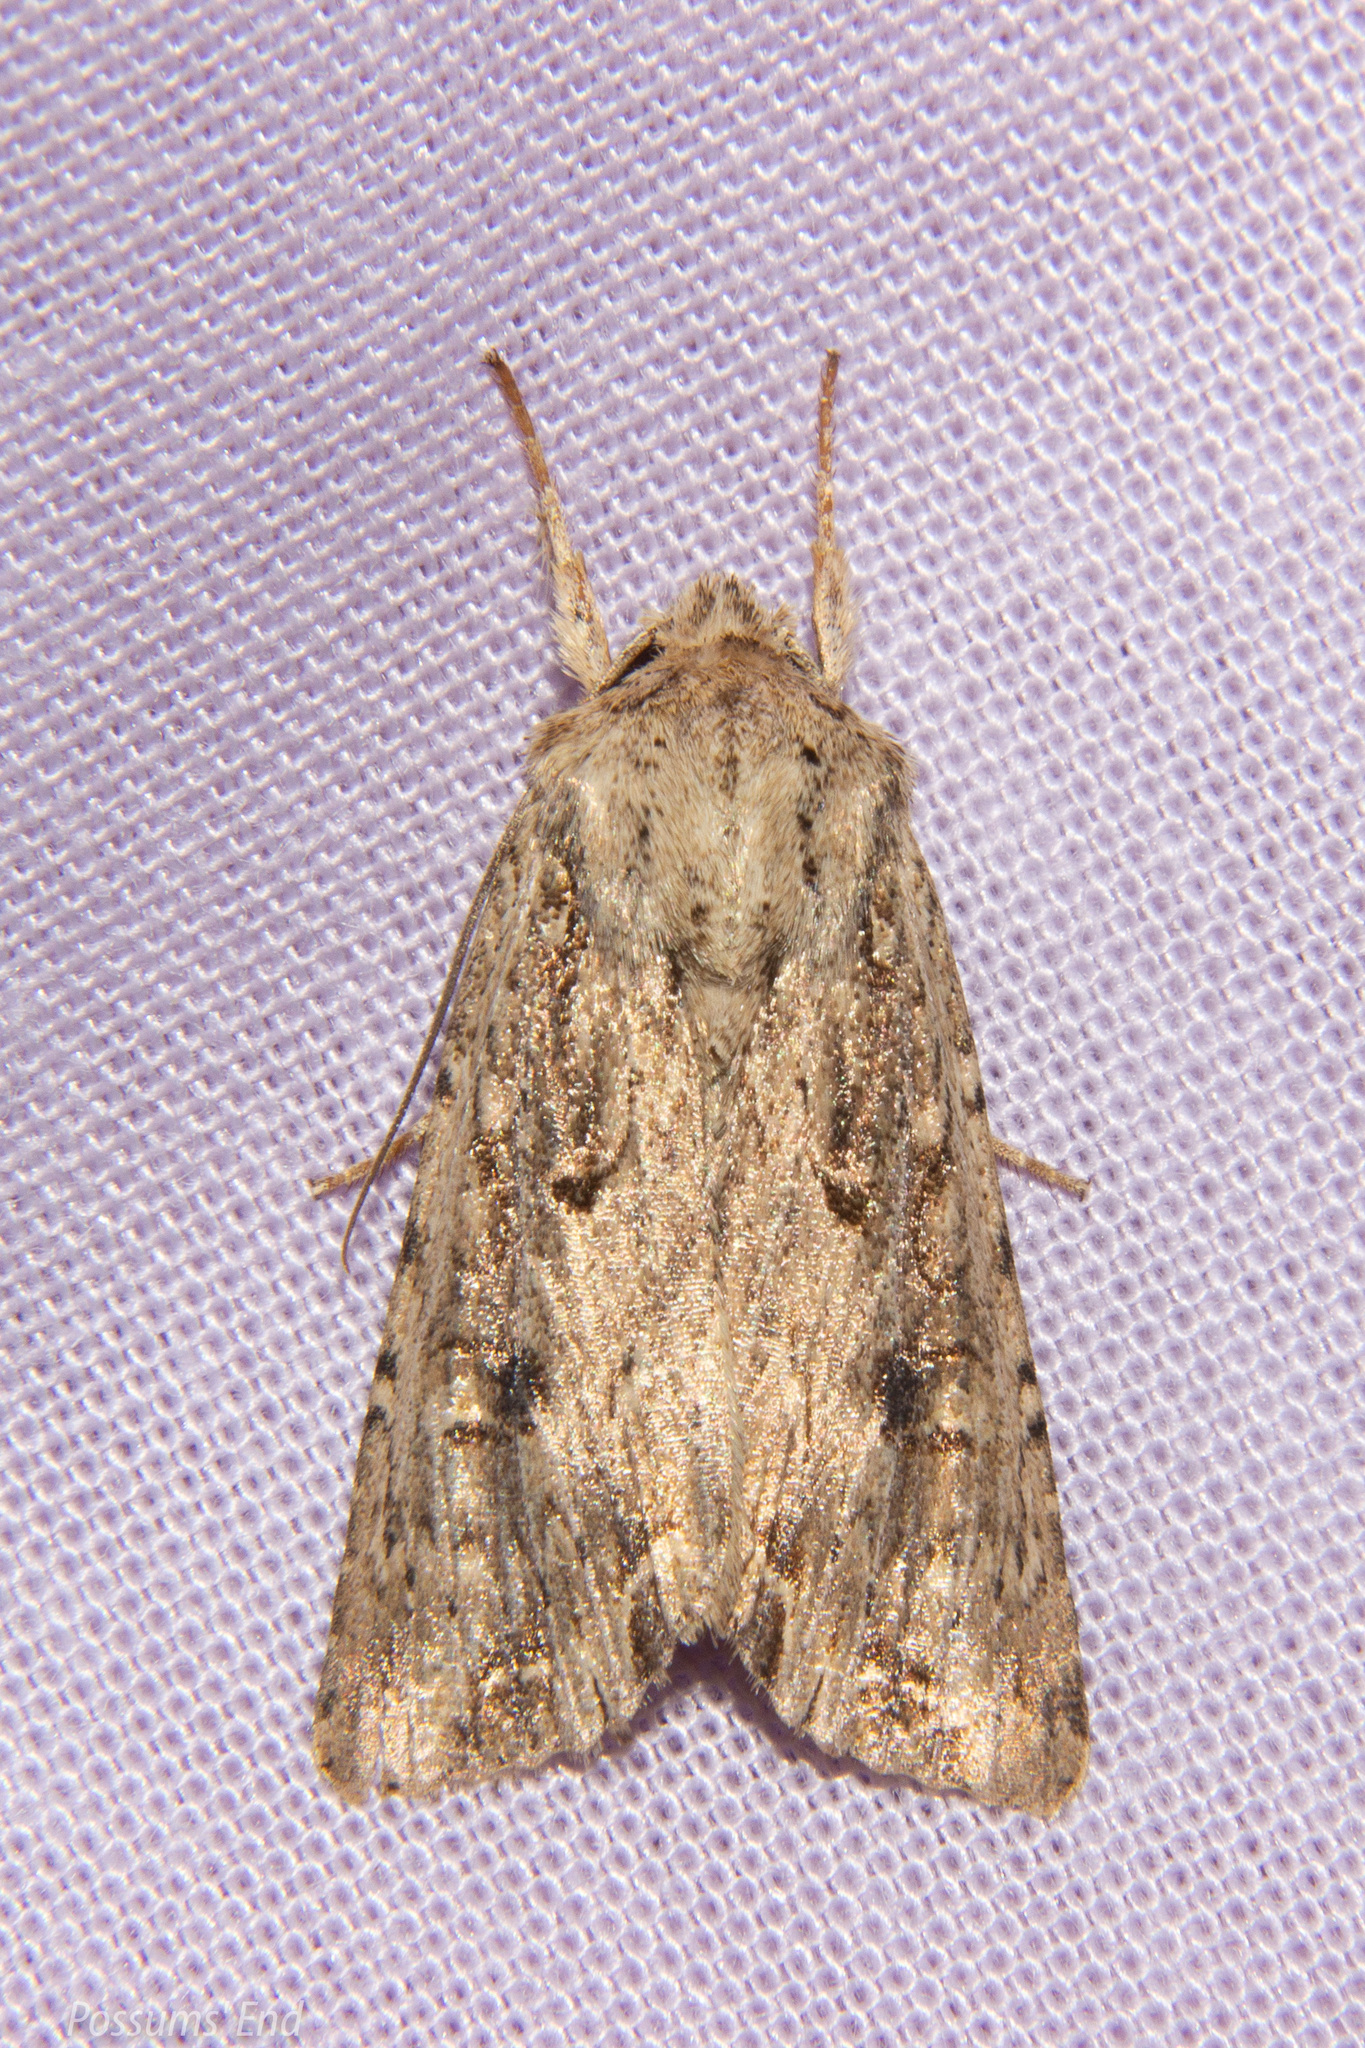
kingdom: Animalia
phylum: Arthropoda
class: Insecta
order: Lepidoptera
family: Noctuidae
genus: Ichneutica
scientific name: Ichneutica lignana
